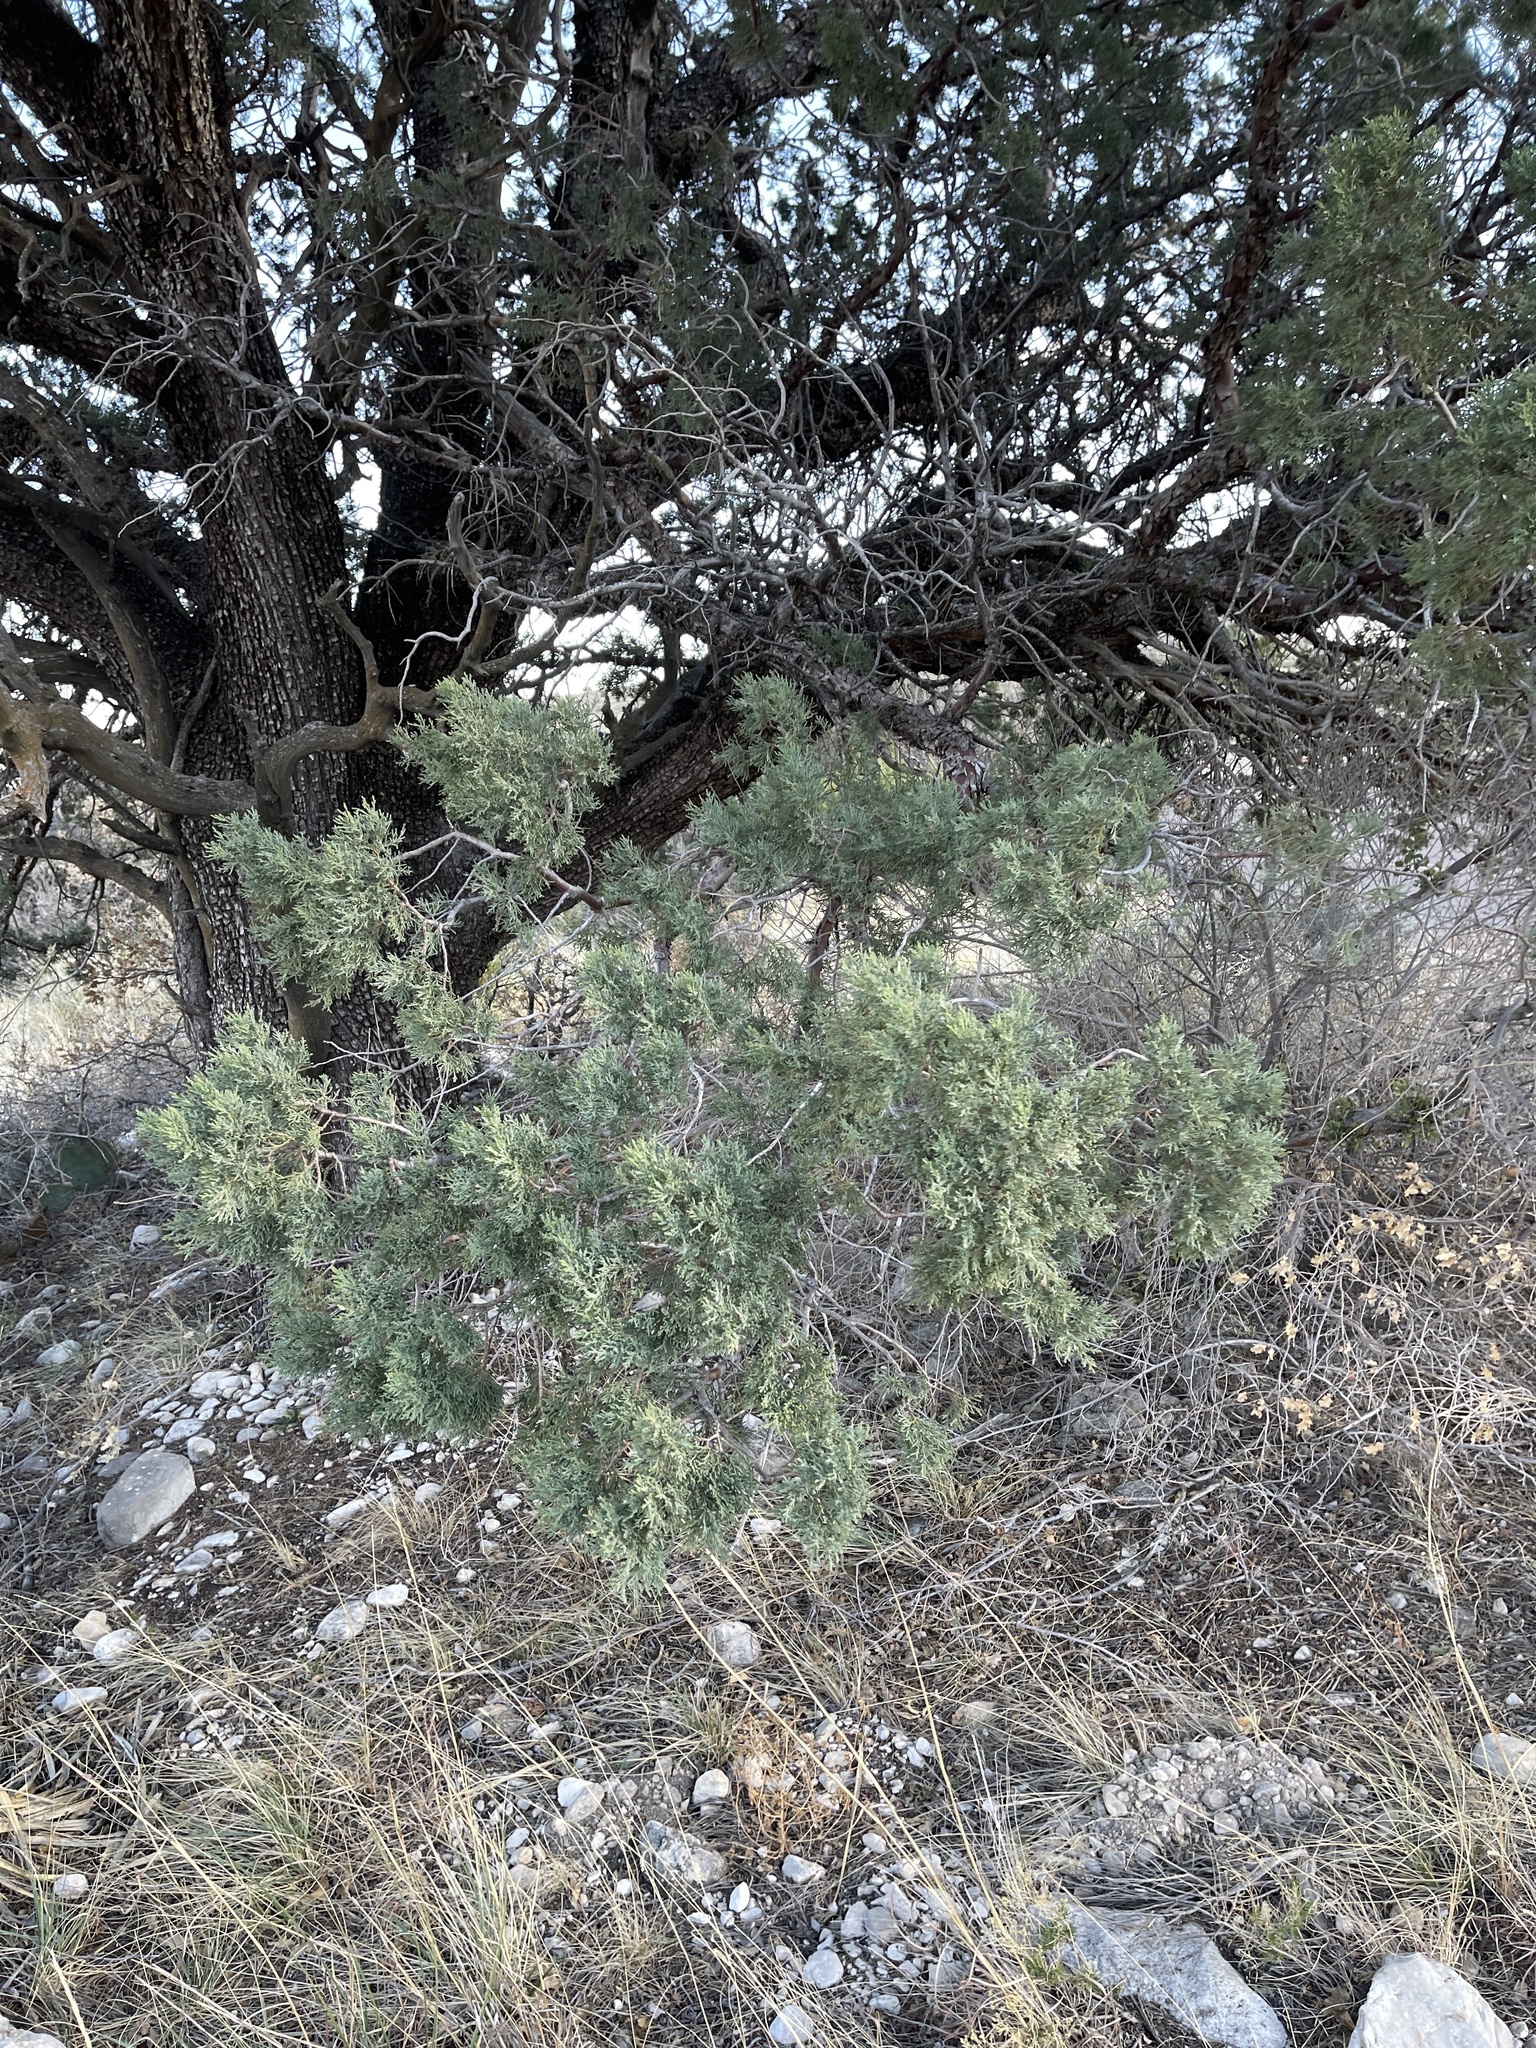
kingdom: Plantae
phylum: Tracheophyta
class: Pinopsida
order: Pinales
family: Cupressaceae
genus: Juniperus
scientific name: Juniperus deppeana
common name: Alligator juniper
